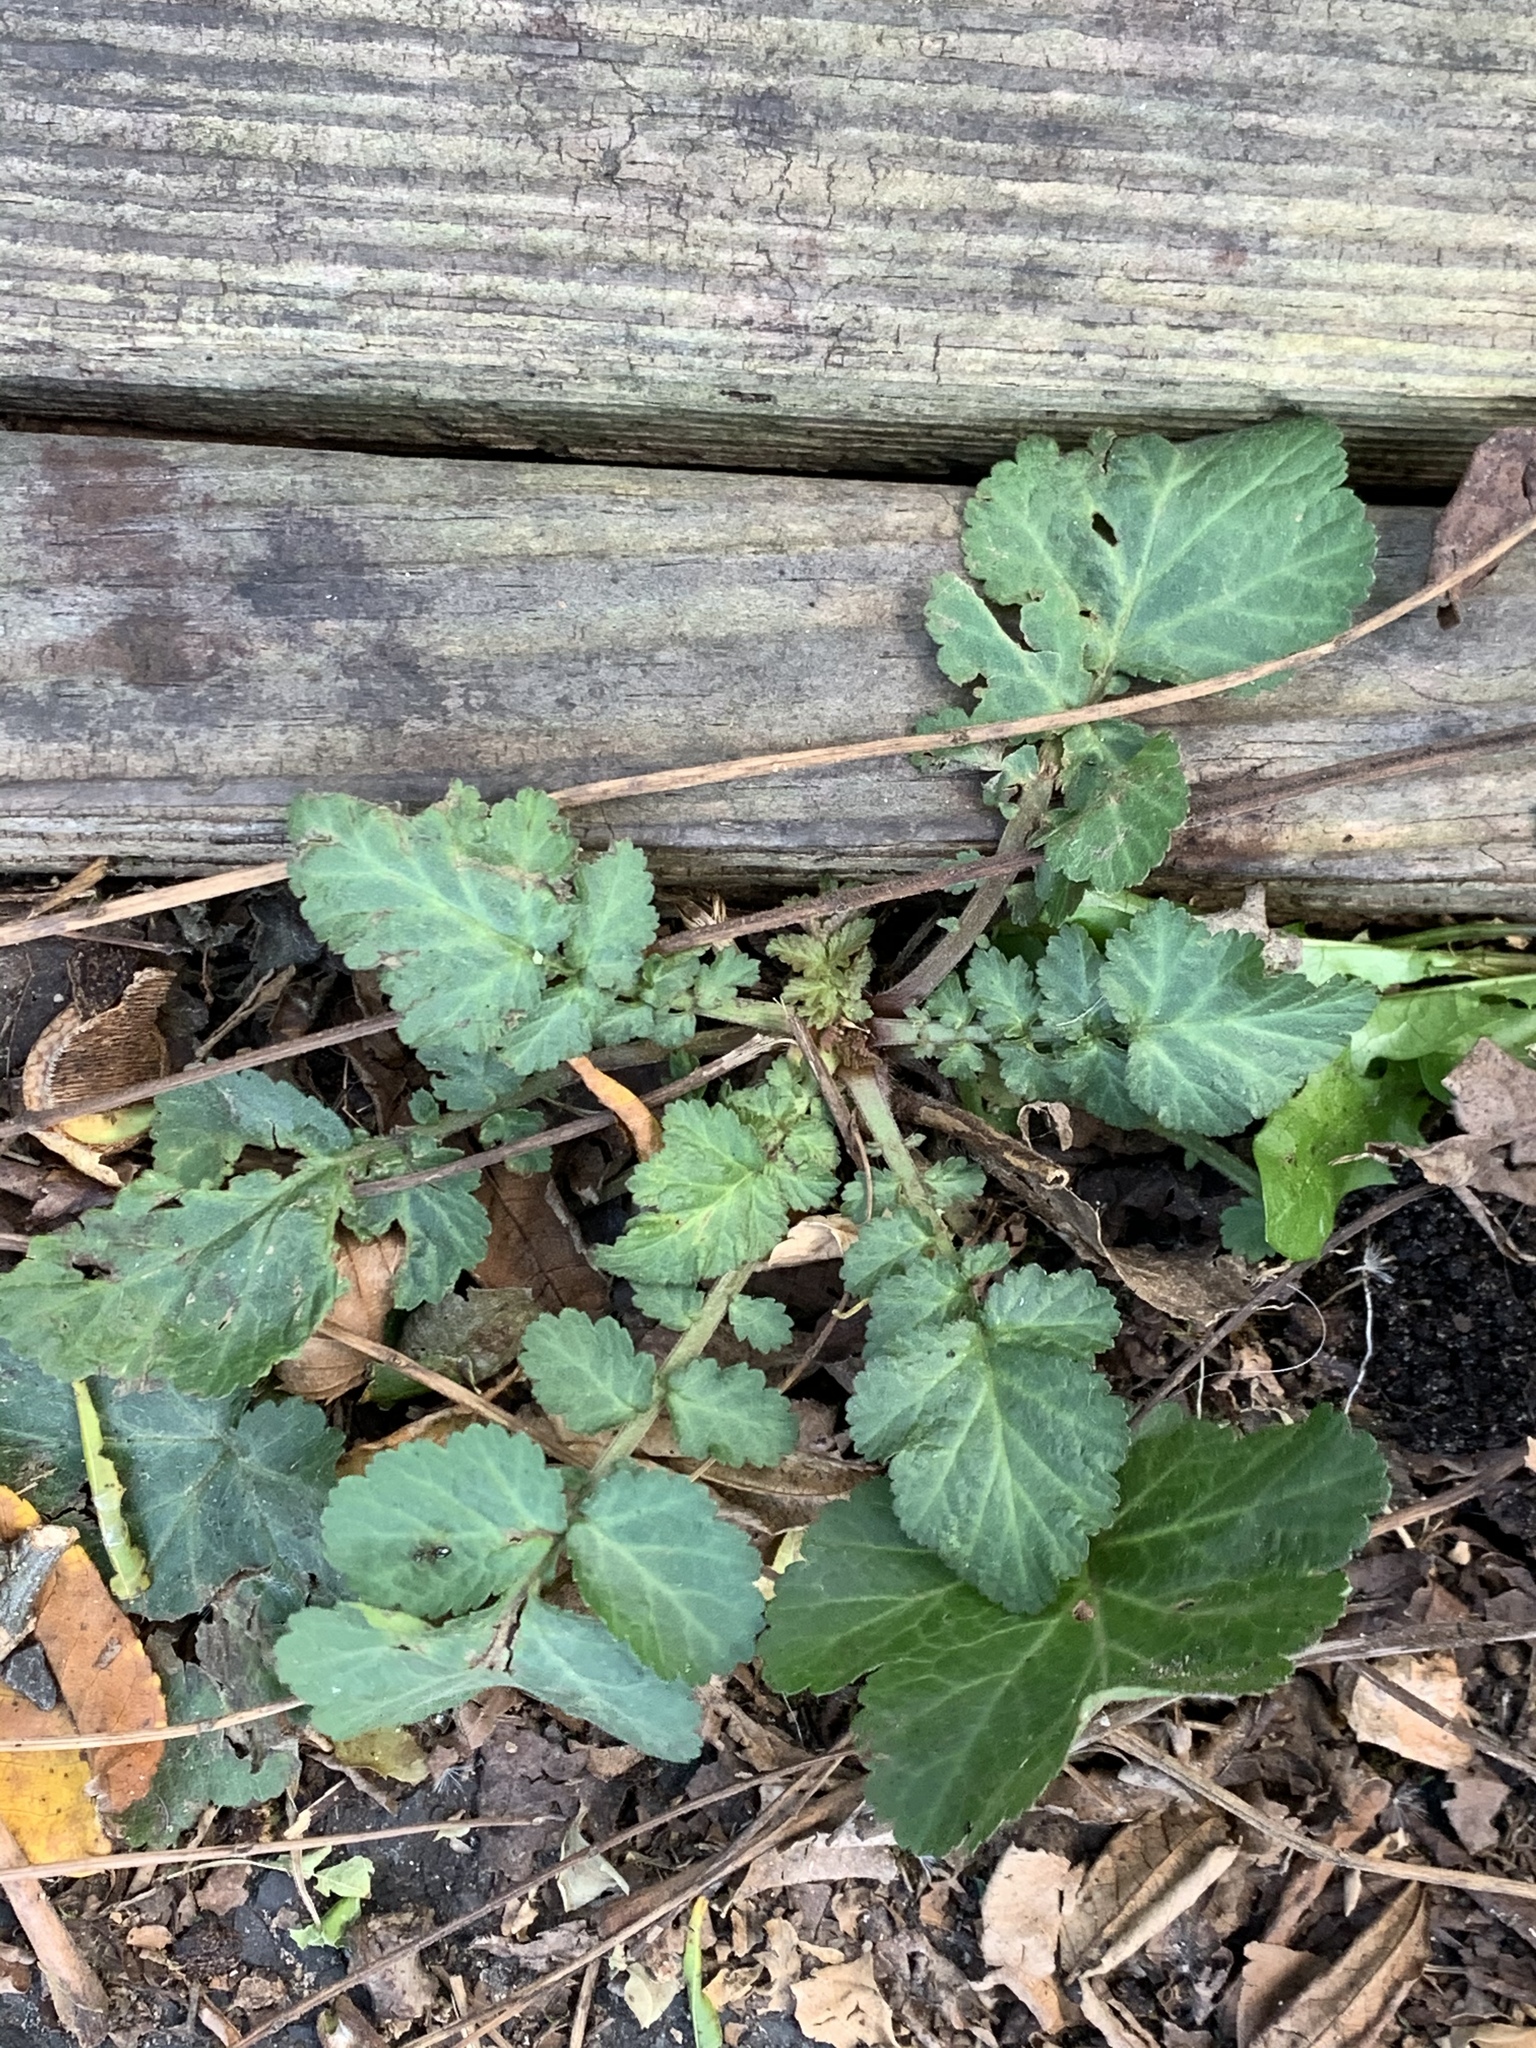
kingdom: Plantae
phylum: Tracheophyta
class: Magnoliopsida
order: Rosales
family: Rosaceae
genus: Geum
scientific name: Geum canadense
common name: White avens
